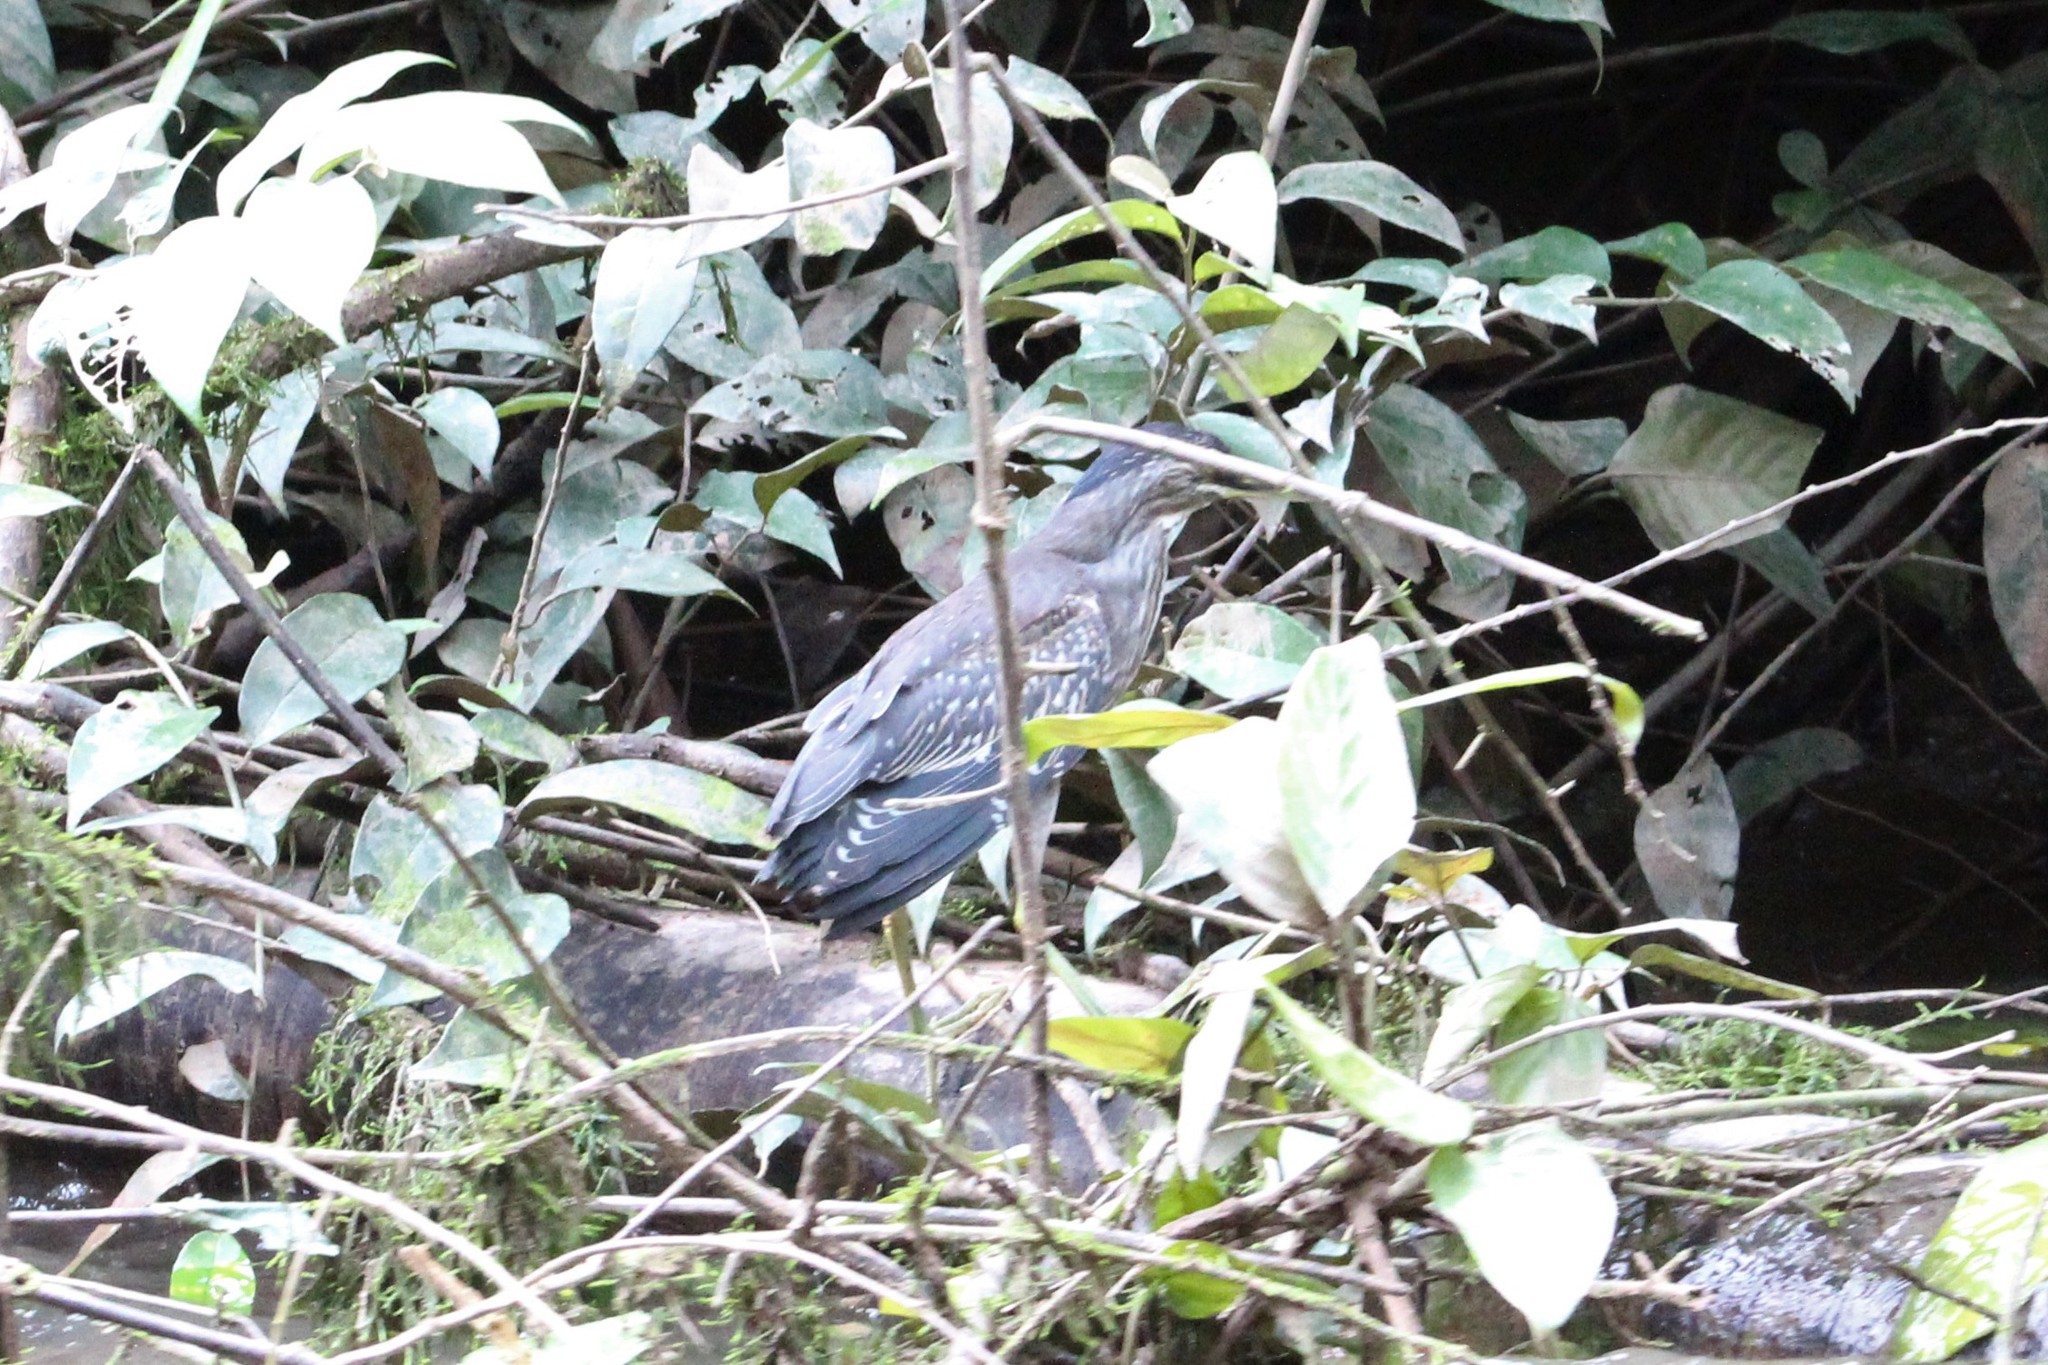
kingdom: Animalia
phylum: Chordata
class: Aves
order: Pelecaniformes
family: Ardeidae
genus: Butorides
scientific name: Butorides striata
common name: Striated heron
